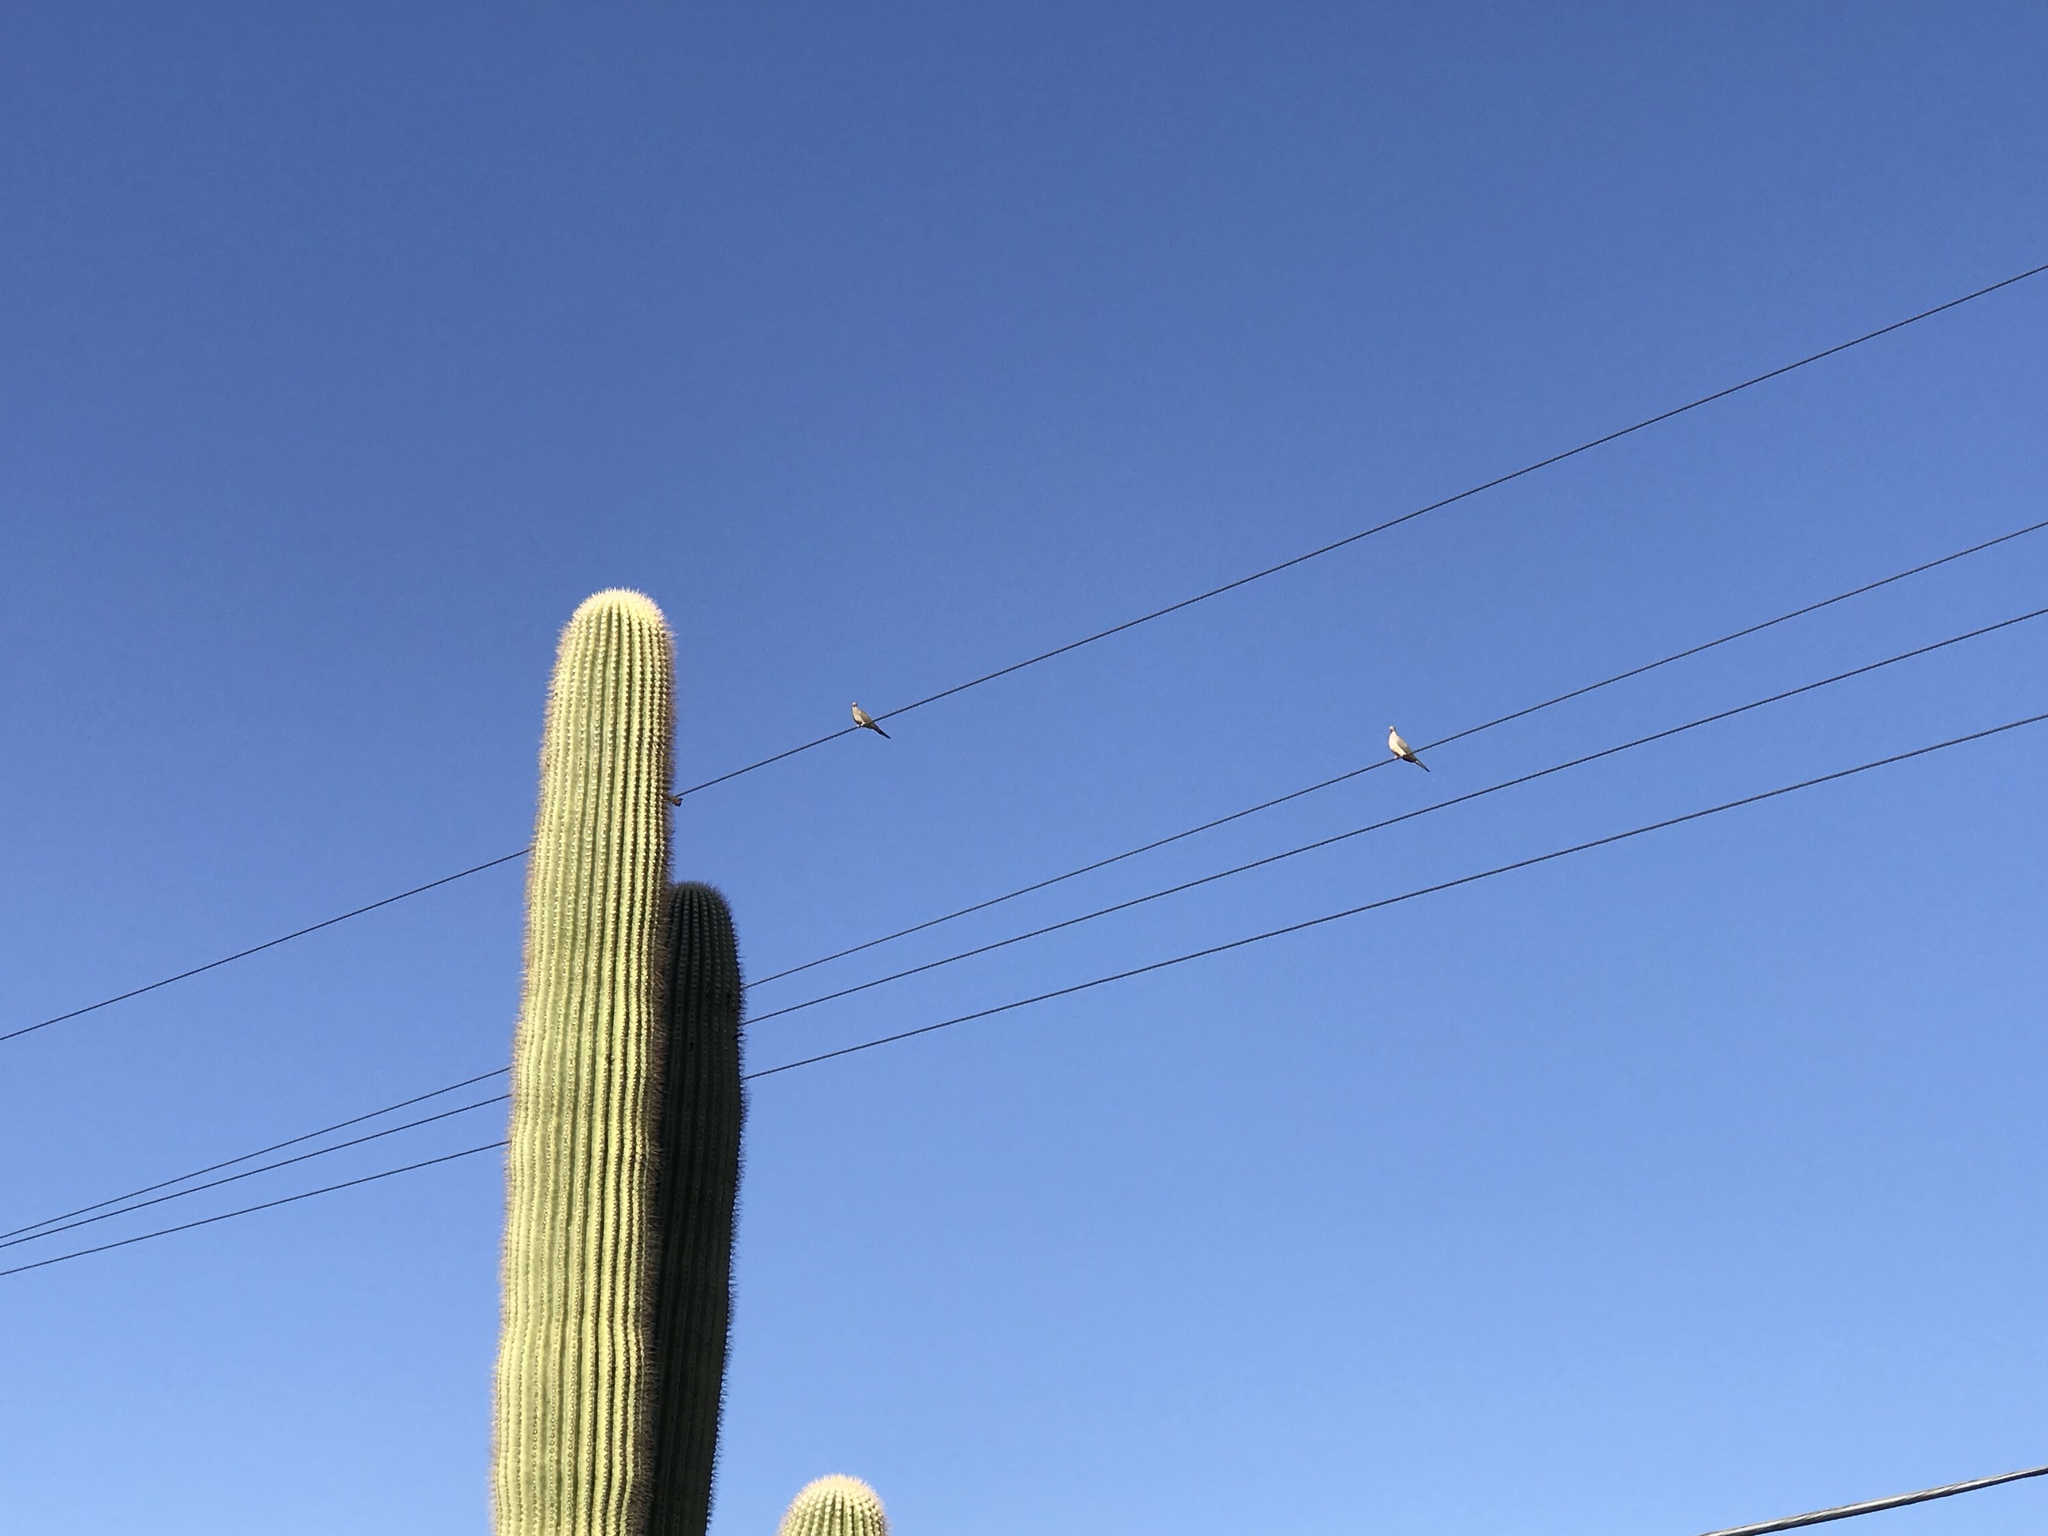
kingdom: Animalia
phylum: Chordata
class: Aves
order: Columbiformes
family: Columbidae
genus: Zenaida
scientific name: Zenaida macroura
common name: Mourning dove
